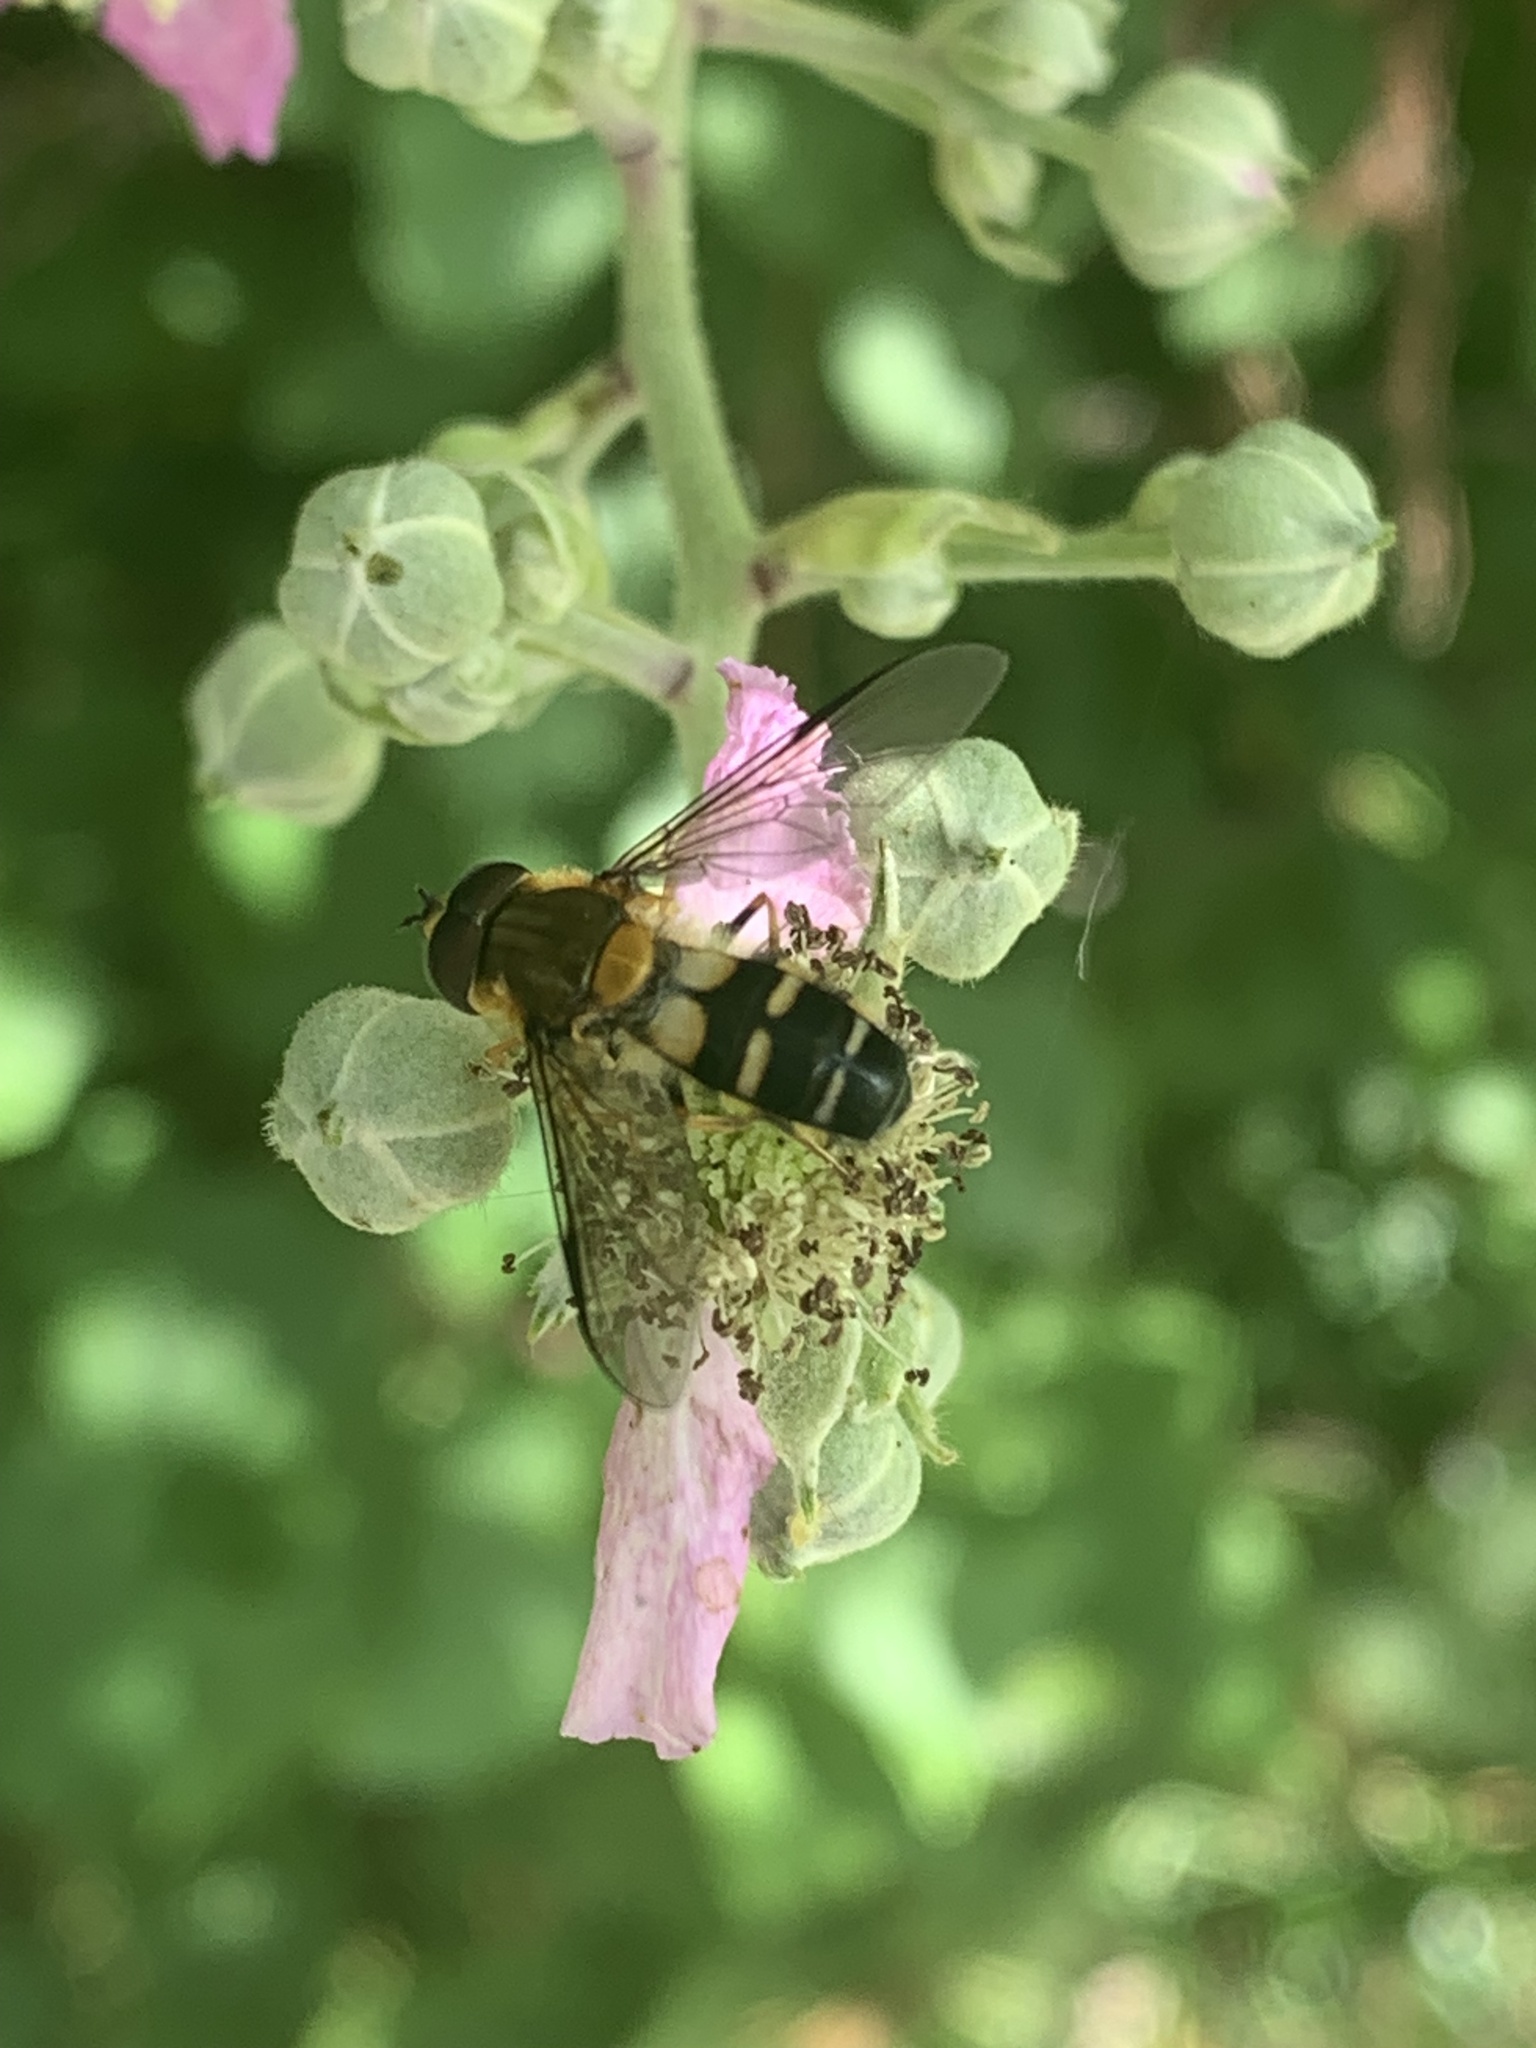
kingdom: Animalia
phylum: Arthropoda
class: Insecta
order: Diptera
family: Syrphidae
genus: Leucozona
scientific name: Leucozona glaucia
